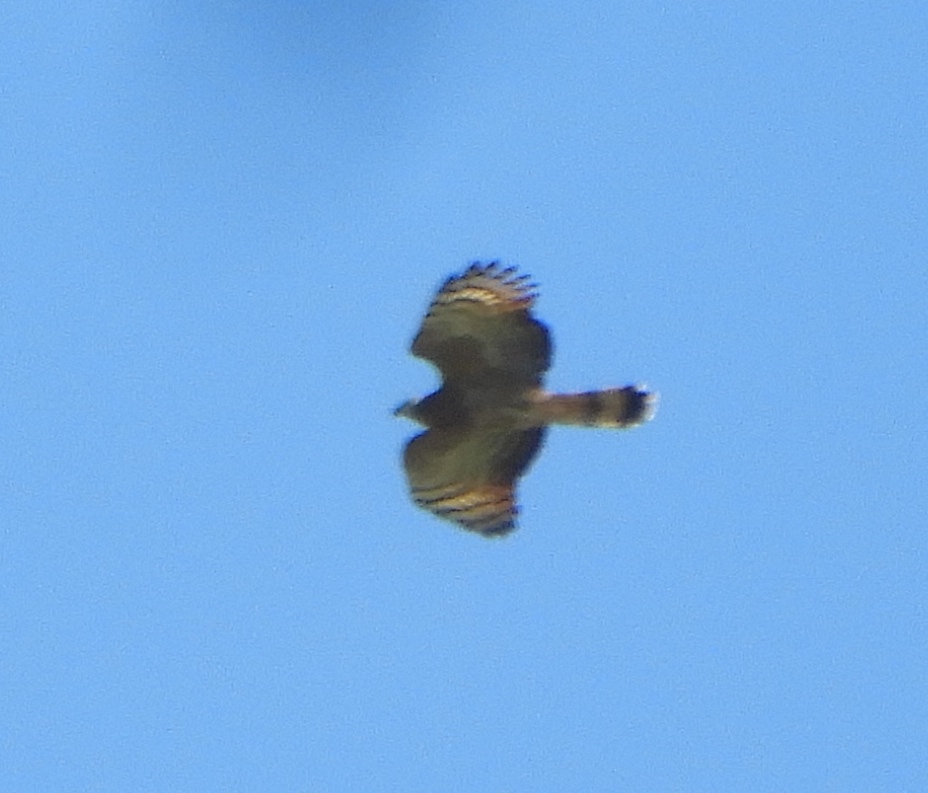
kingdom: Animalia
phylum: Chordata
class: Aves
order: Accipitriformes
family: Accipitridae
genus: Chondrohierax
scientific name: Chondrohierax uncinatus
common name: Hook-billed kite
